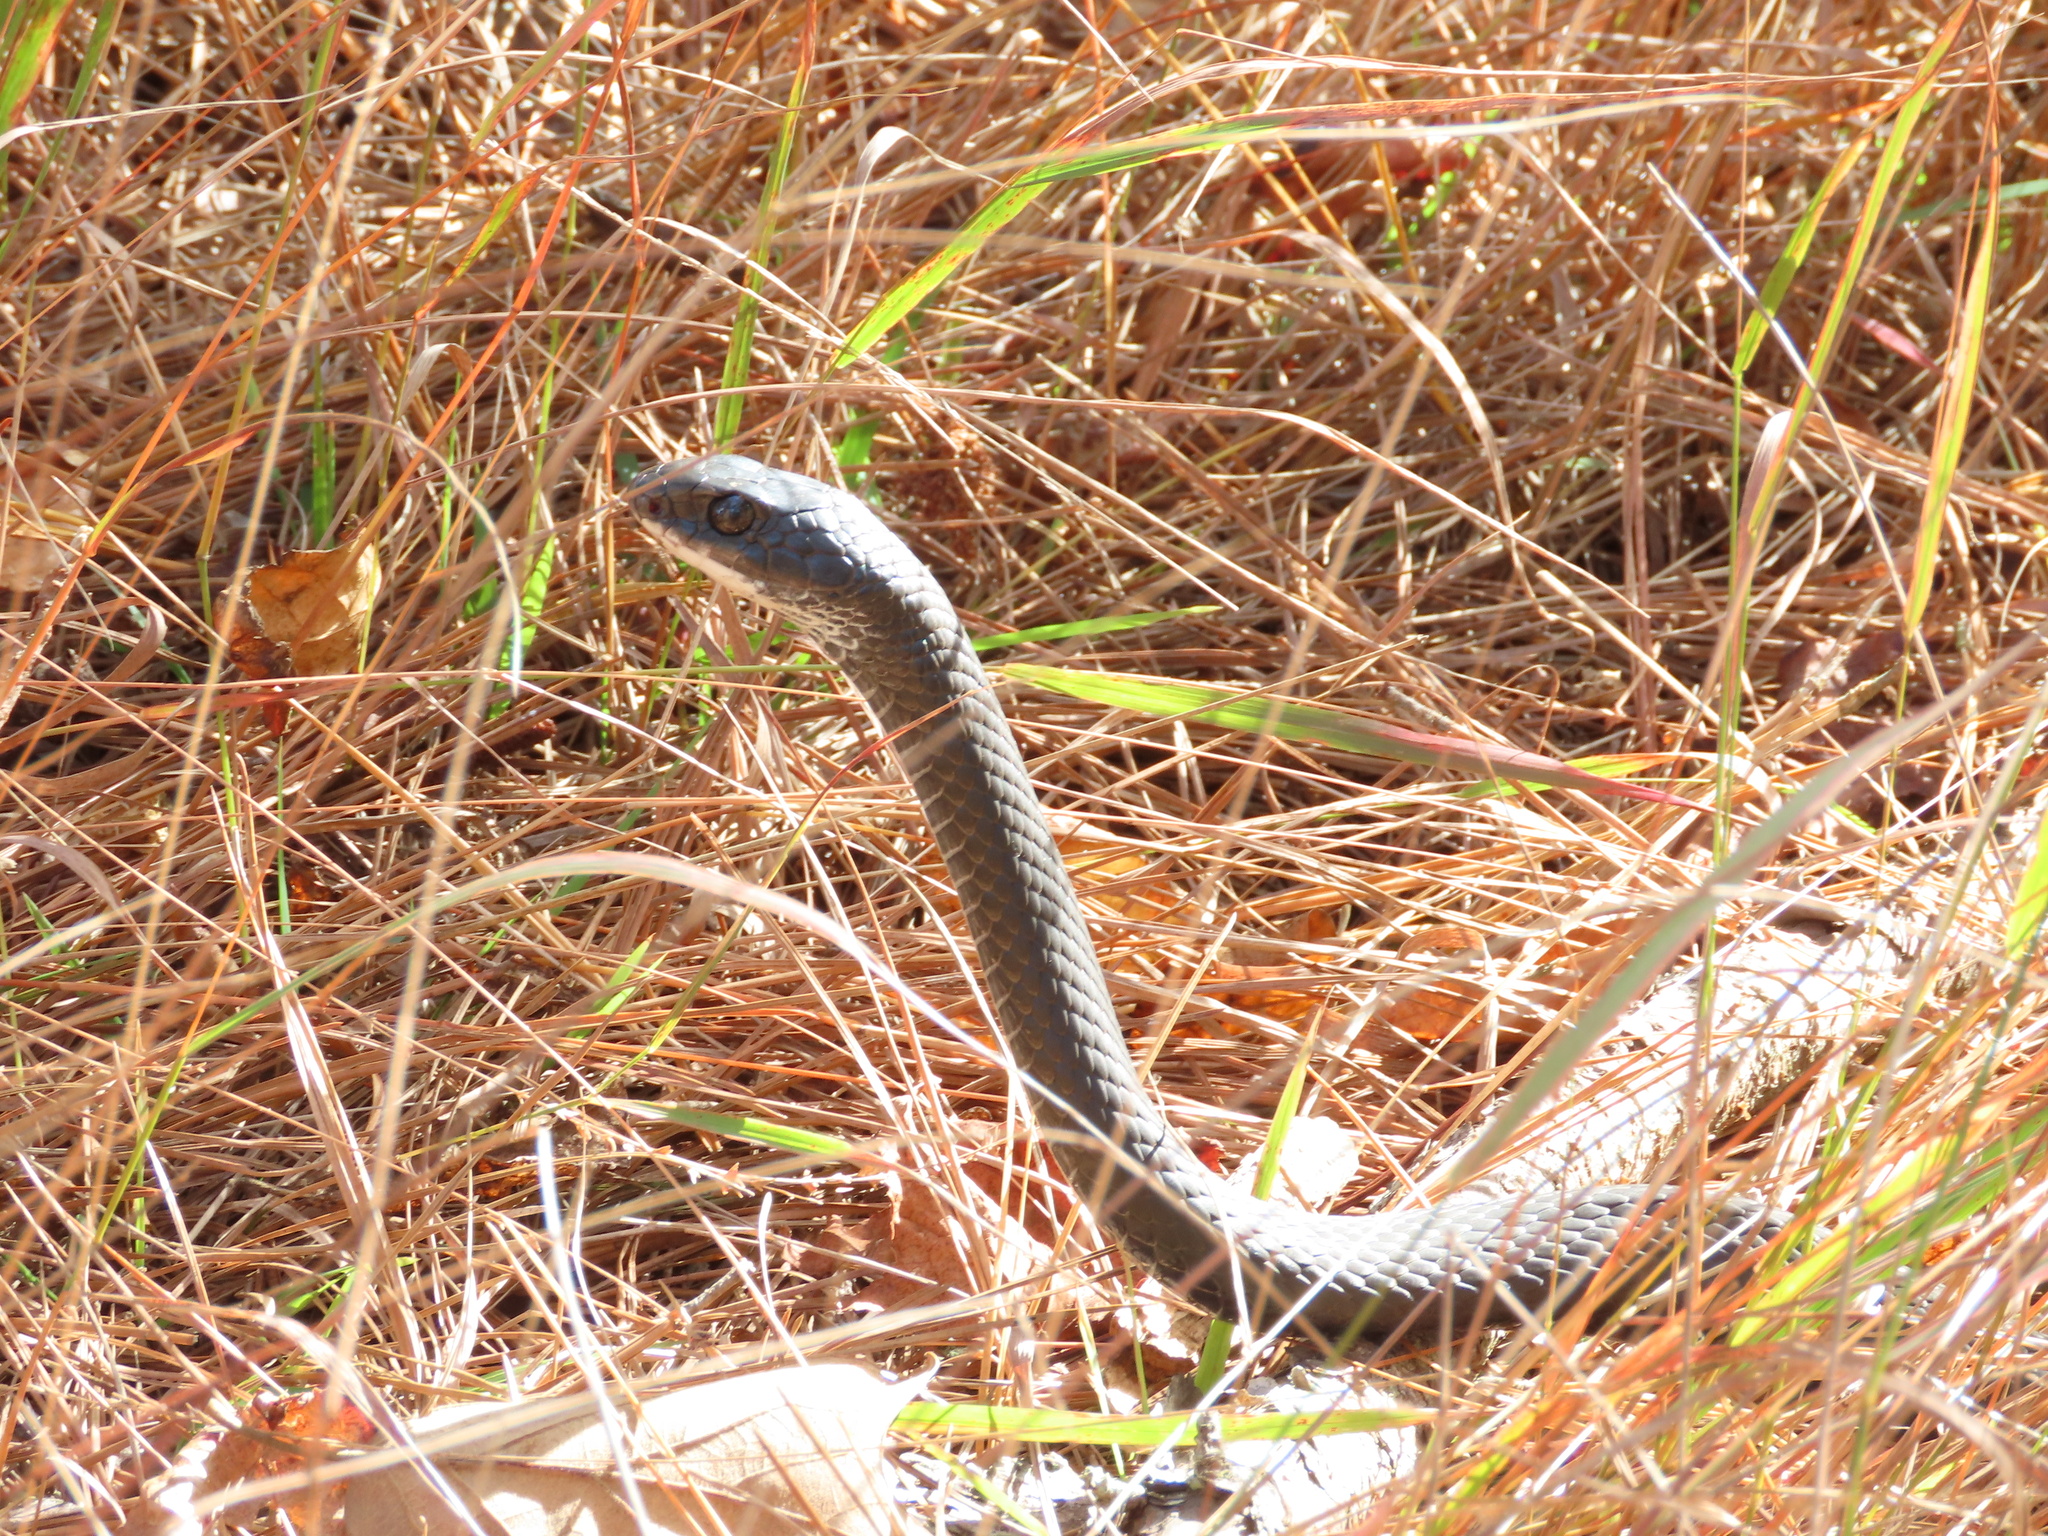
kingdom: Animalia
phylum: Chordata
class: Squamata
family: Colubridae
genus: Coluber
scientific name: Coluber constrictor
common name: Eastern racer
